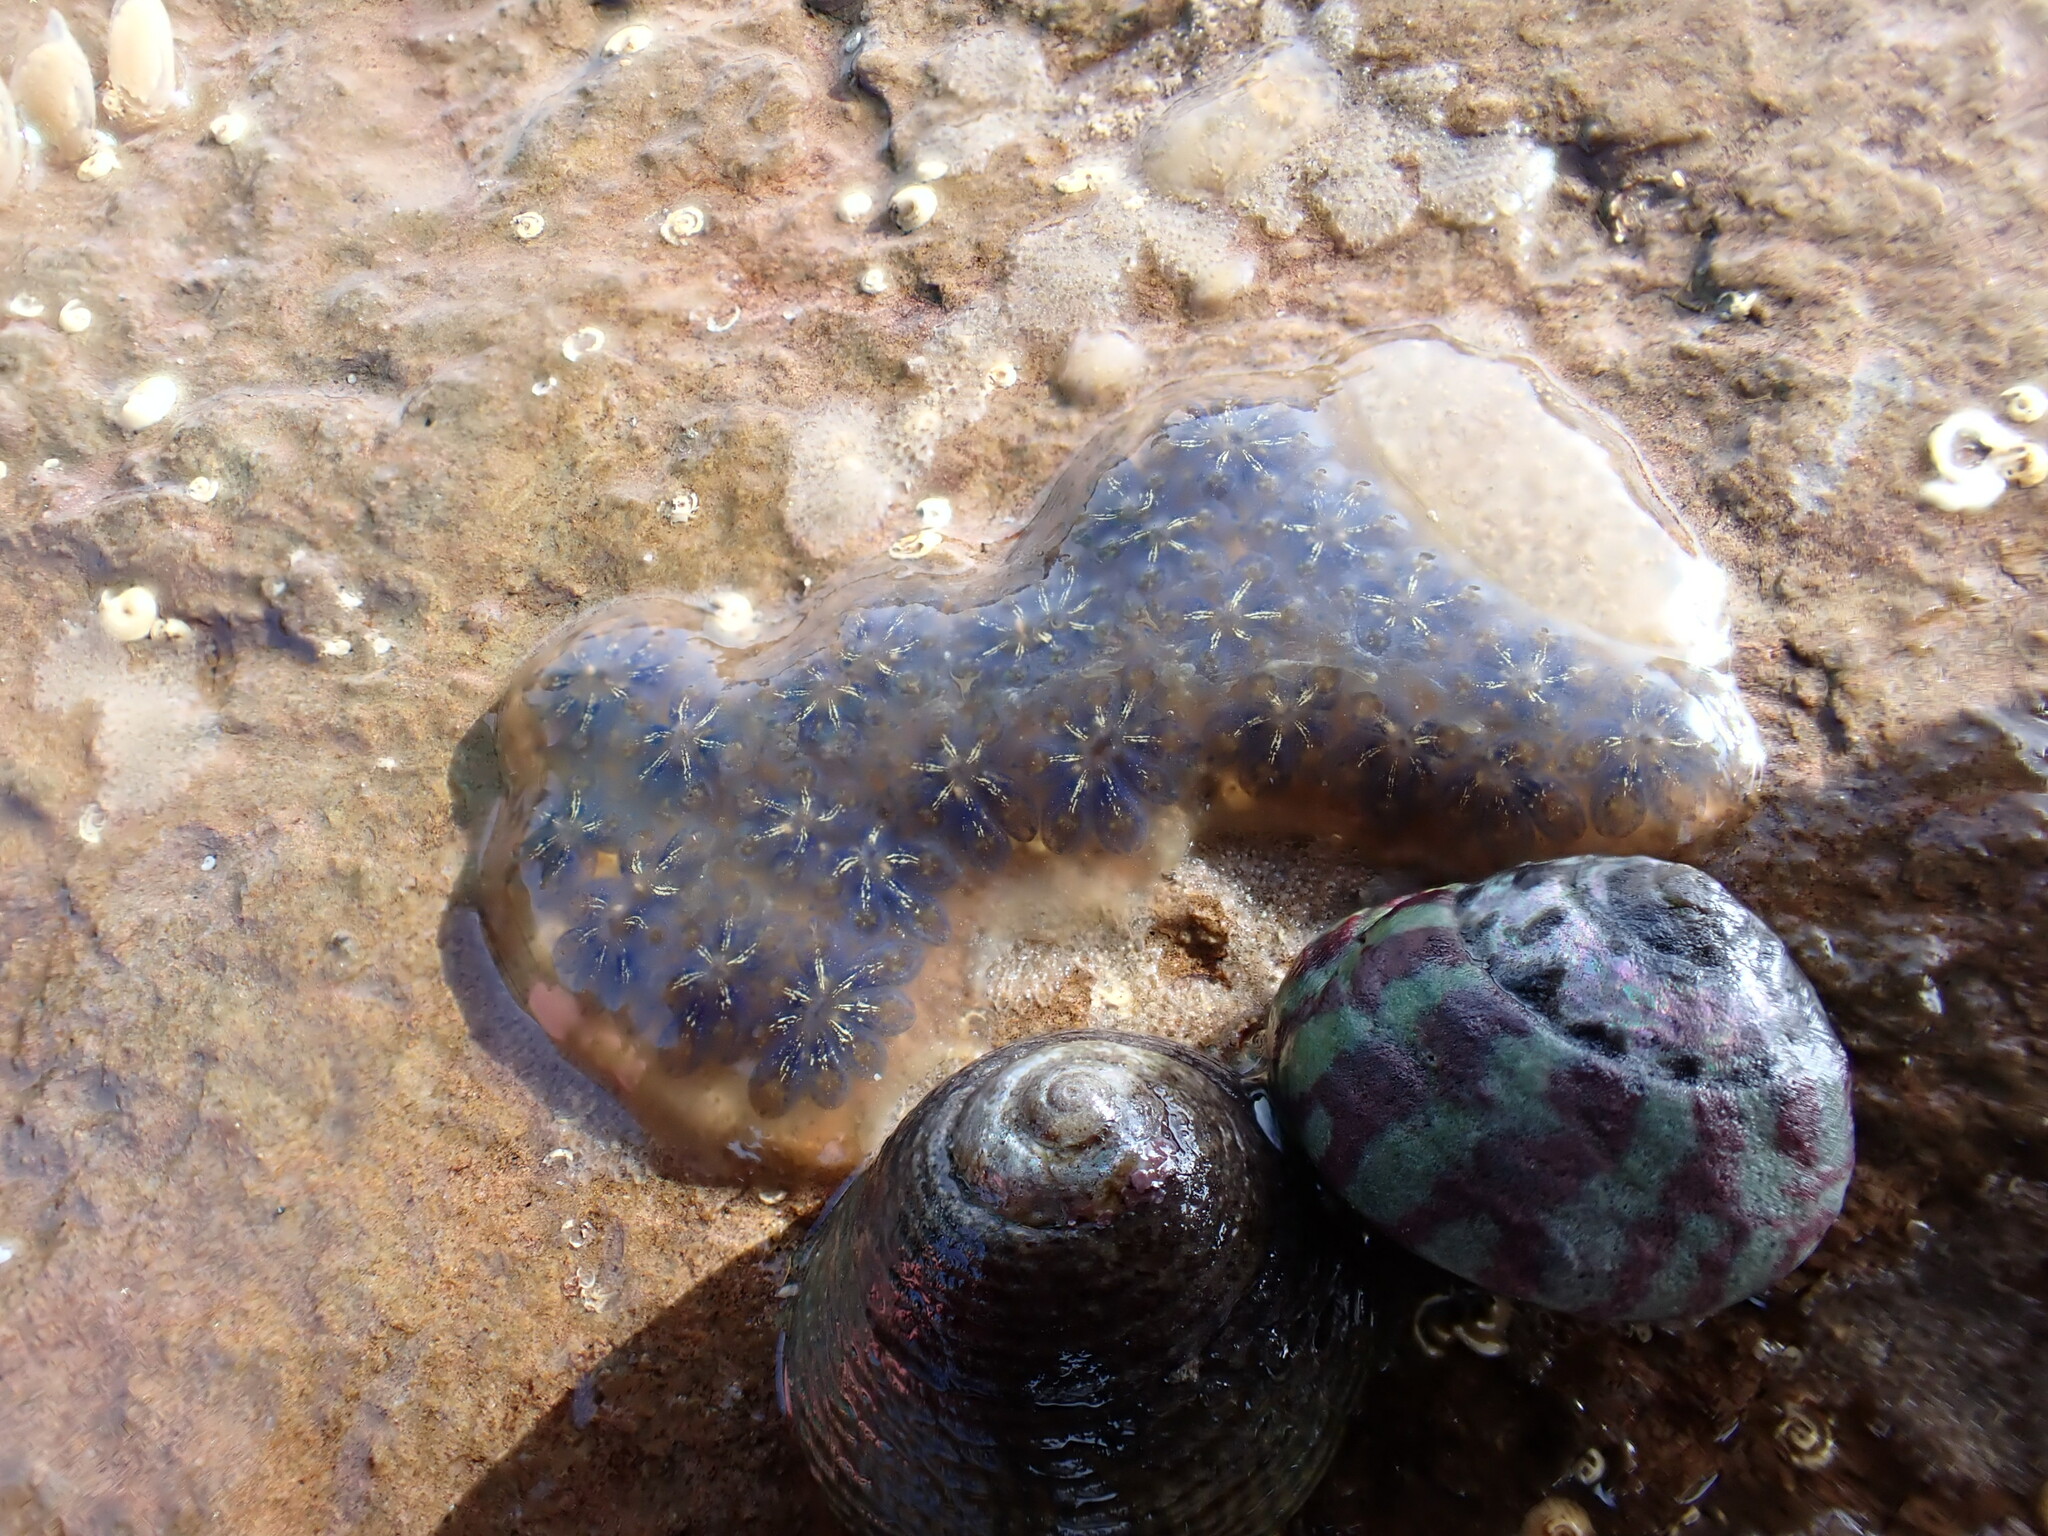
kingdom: Animalia
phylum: Chordata
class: Ascidiacea
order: Stolidobranchia
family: Styelidae
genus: Botryllus
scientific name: Botryllus schlosseri
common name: Golden star tunicate
